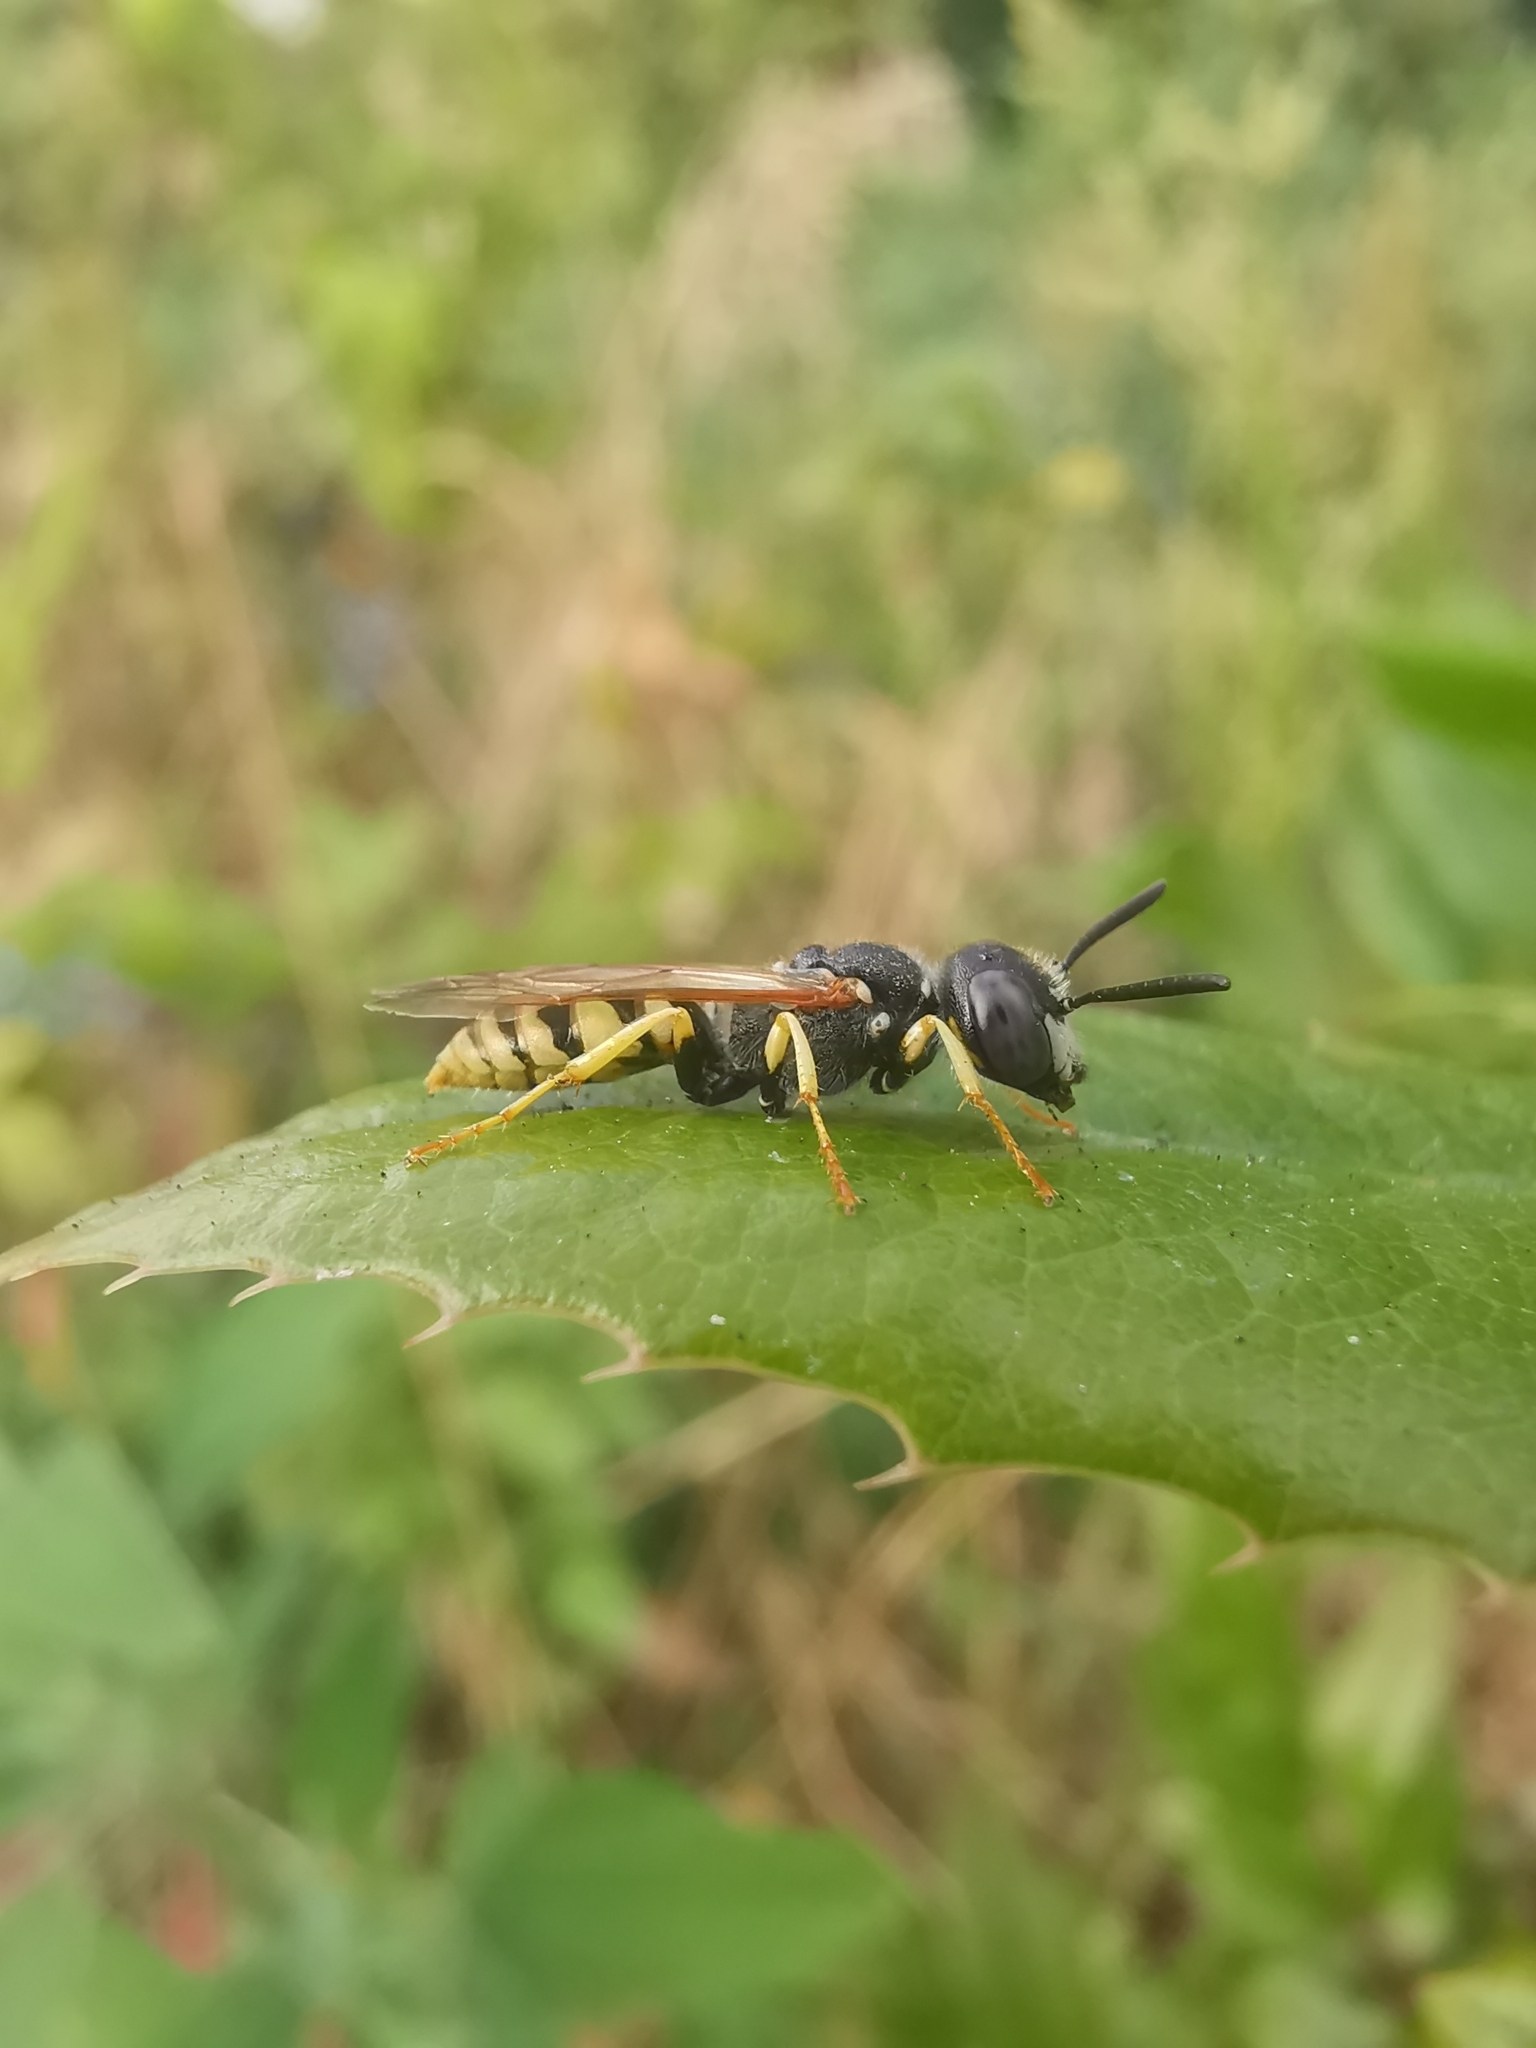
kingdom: Animalia
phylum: Arthropoda
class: Insecta
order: Hymenoptera
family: Crabronidae
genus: Philanthus
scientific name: Philanthus triangulum
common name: Bee wolf
